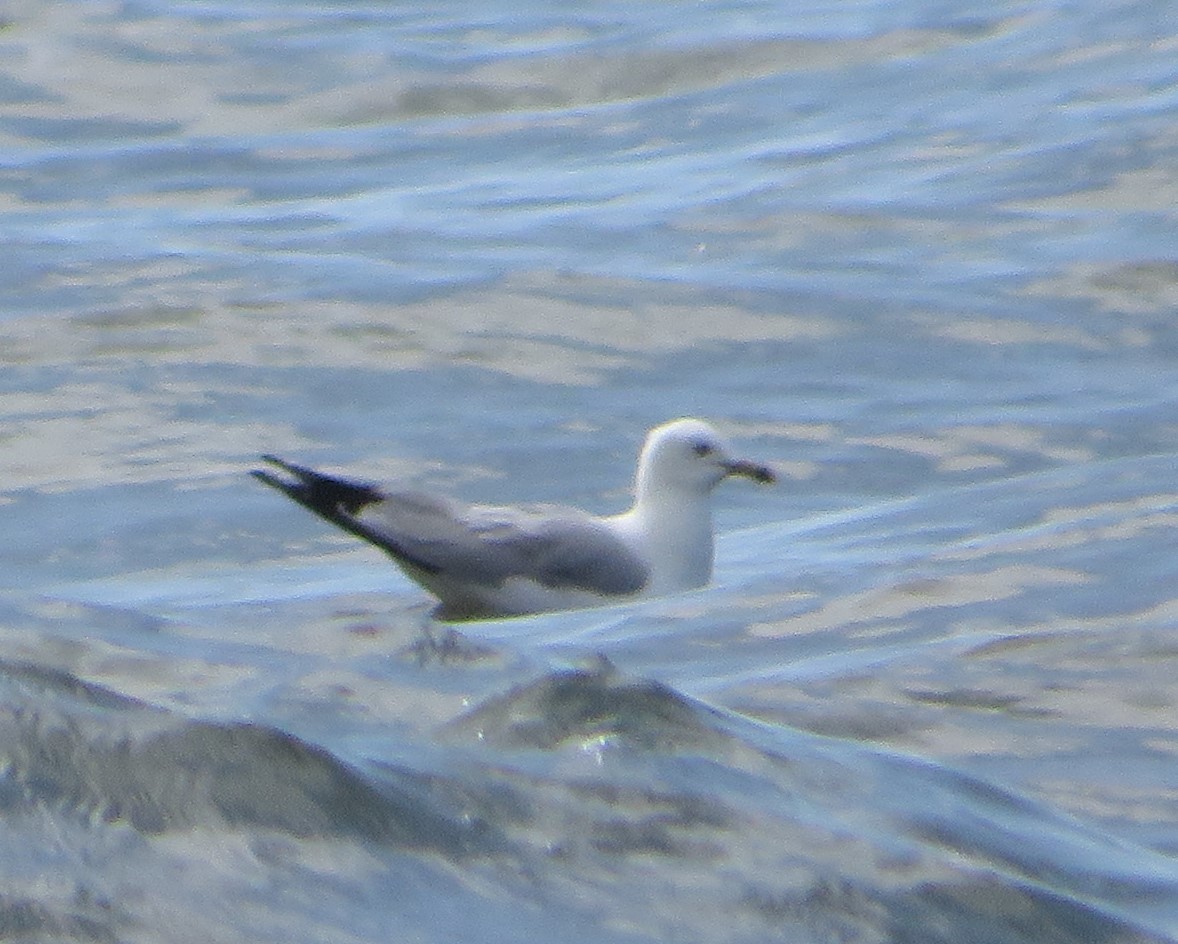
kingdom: Animalia
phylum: Chordata
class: Aves
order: Charadriiformes
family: Laridae
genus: Larus
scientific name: Larus delawarensis
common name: Ring-billed gull
